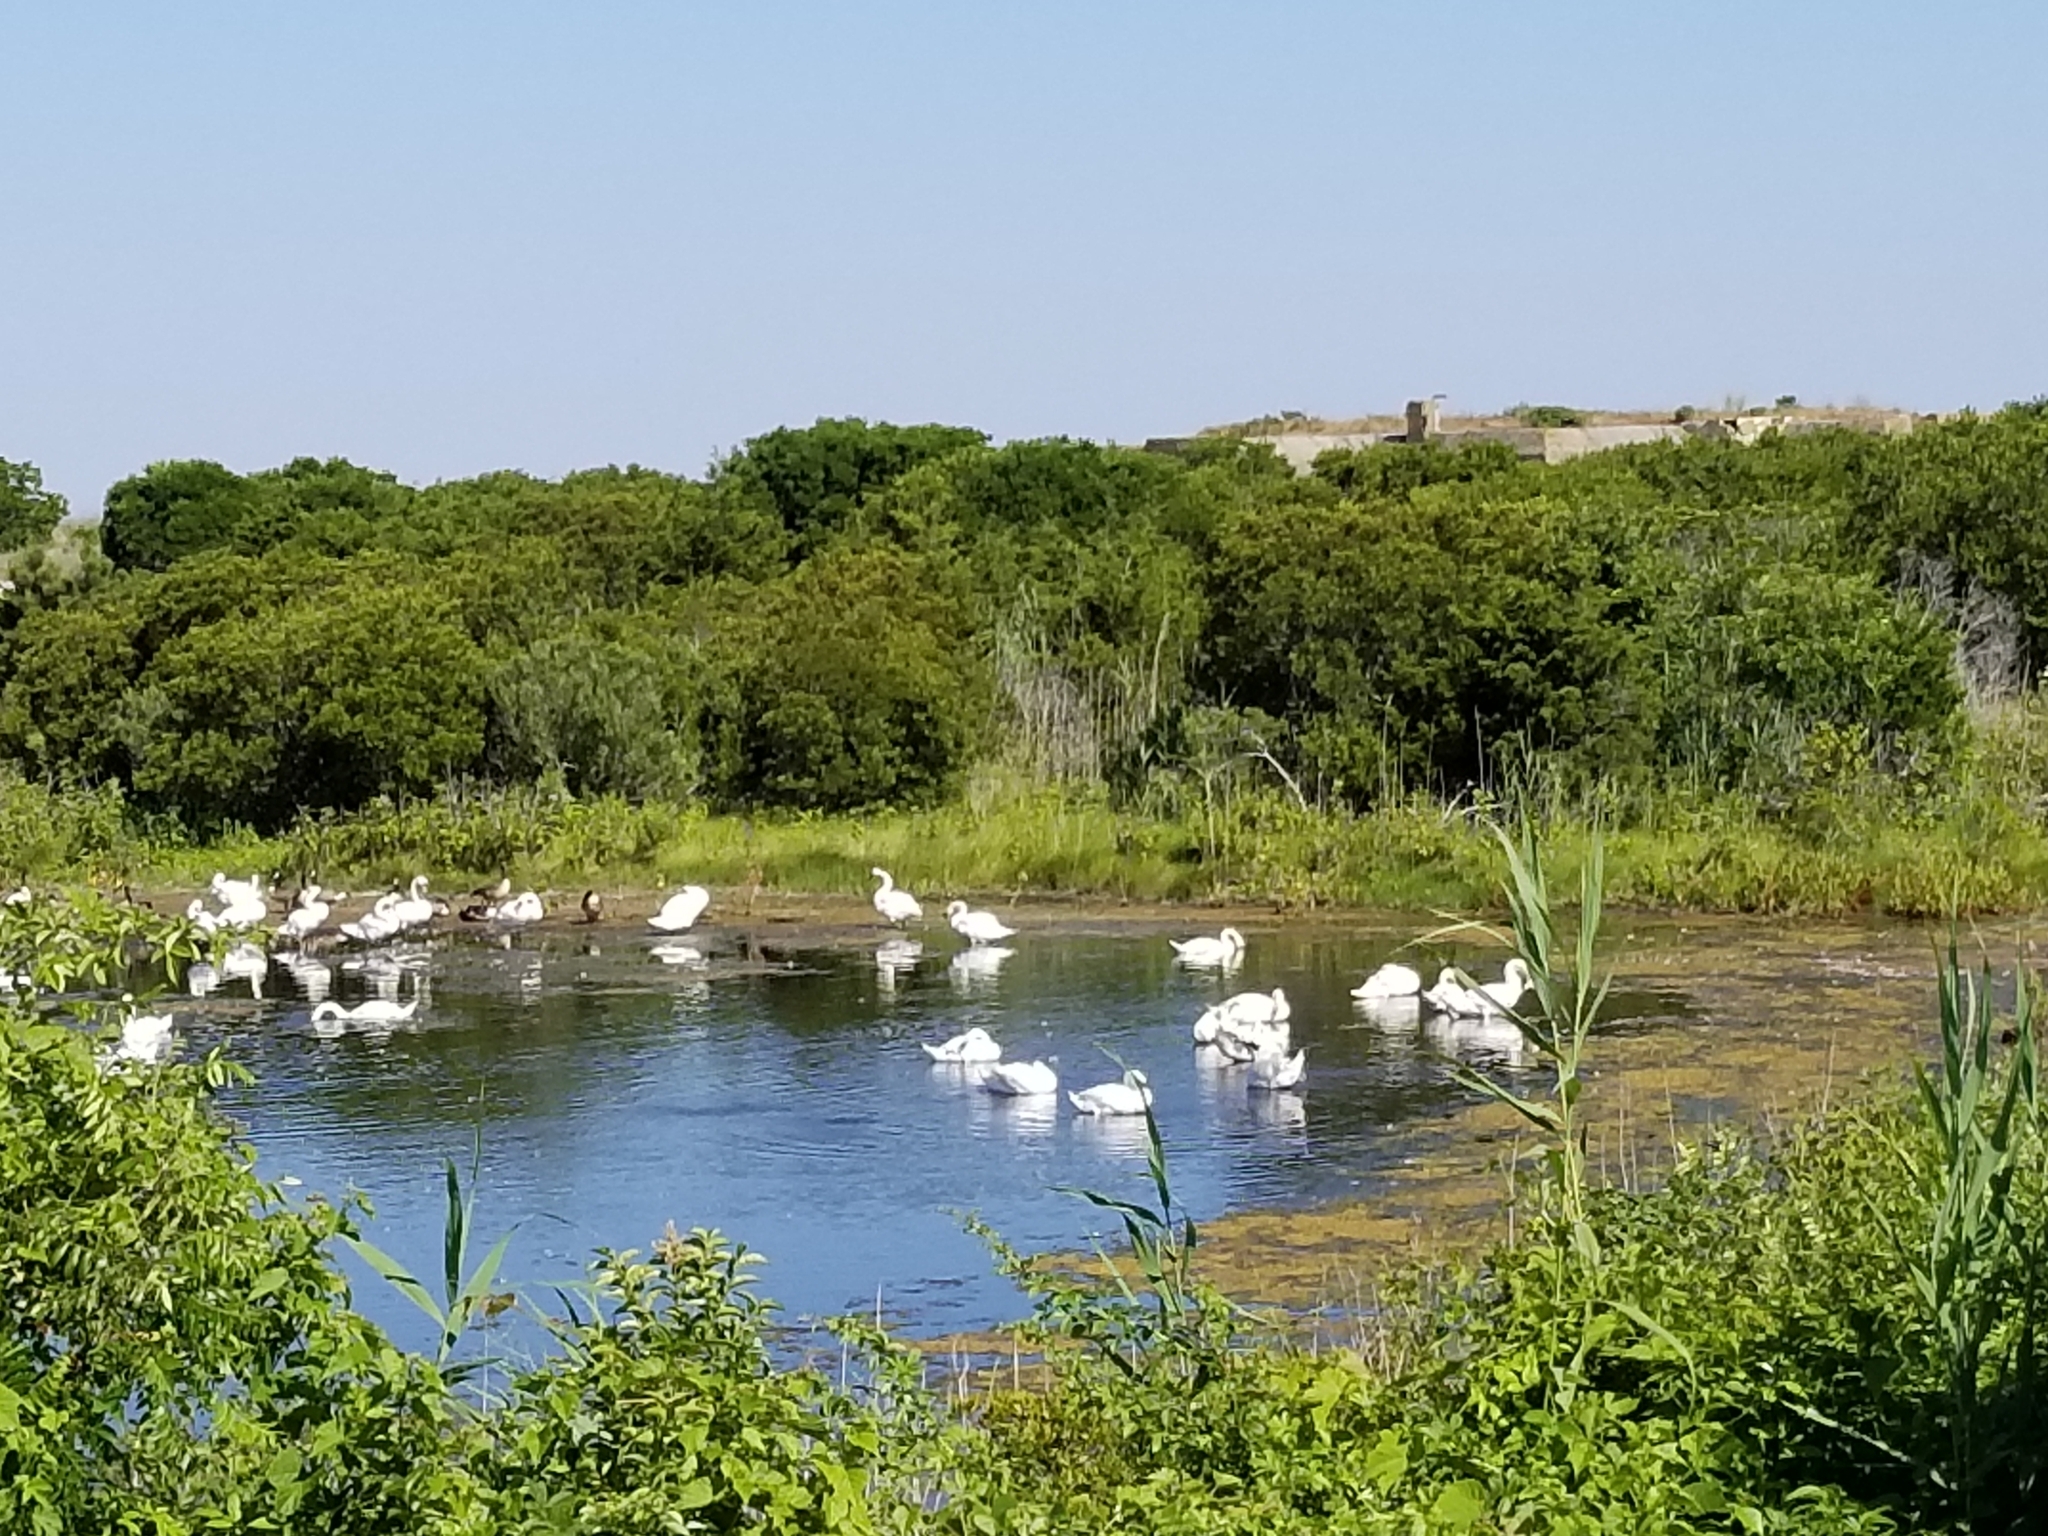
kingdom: Animalia
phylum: Chordata
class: Aves
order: Anseriformes
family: Anatidae
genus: Cygnus
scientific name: Cygnus olor
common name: Mute swan
